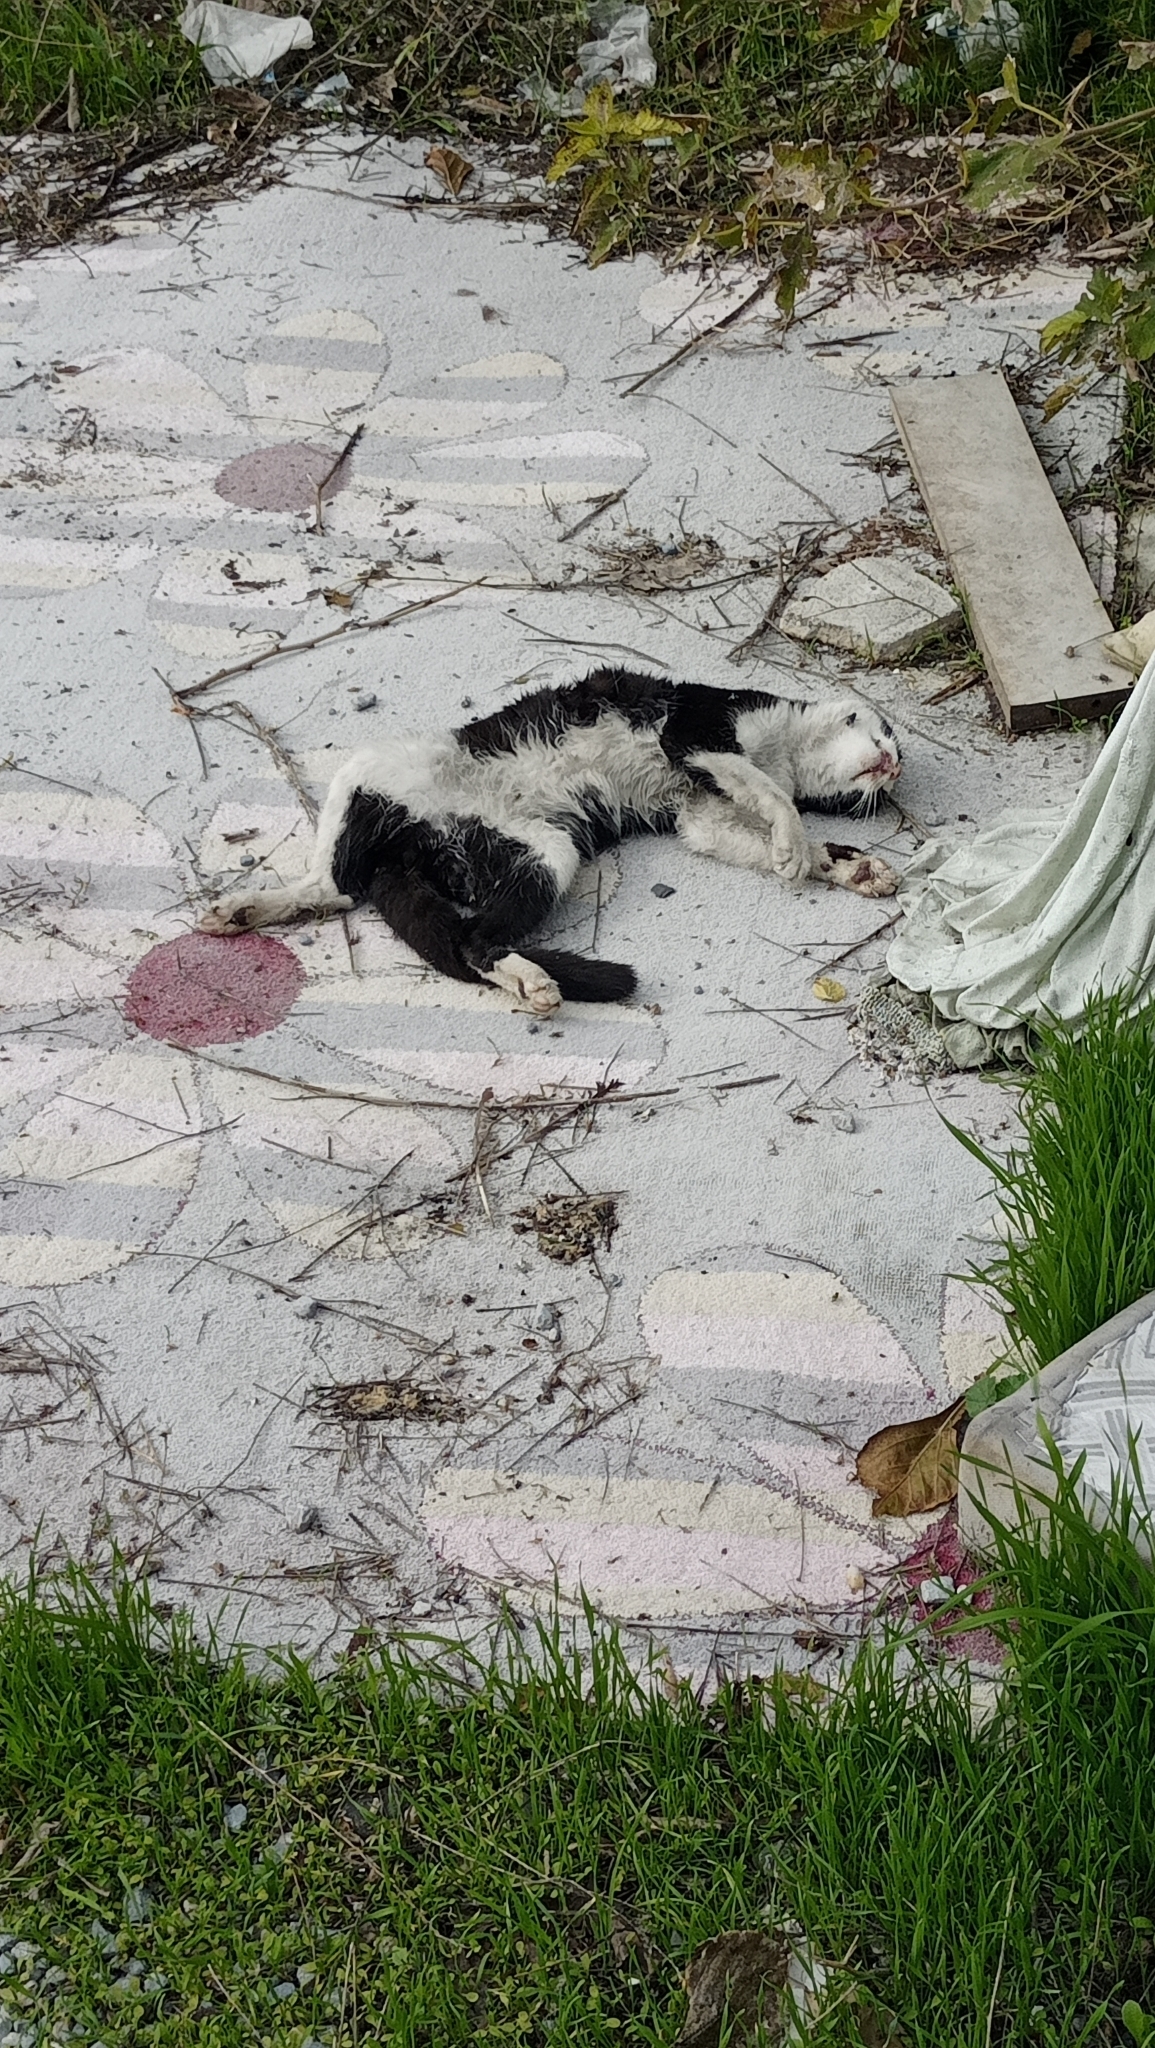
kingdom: Animalia
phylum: Chordata
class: Mammalia
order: Carnivora
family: Felidae
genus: Felis
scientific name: Felis catus
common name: Domestic cat
